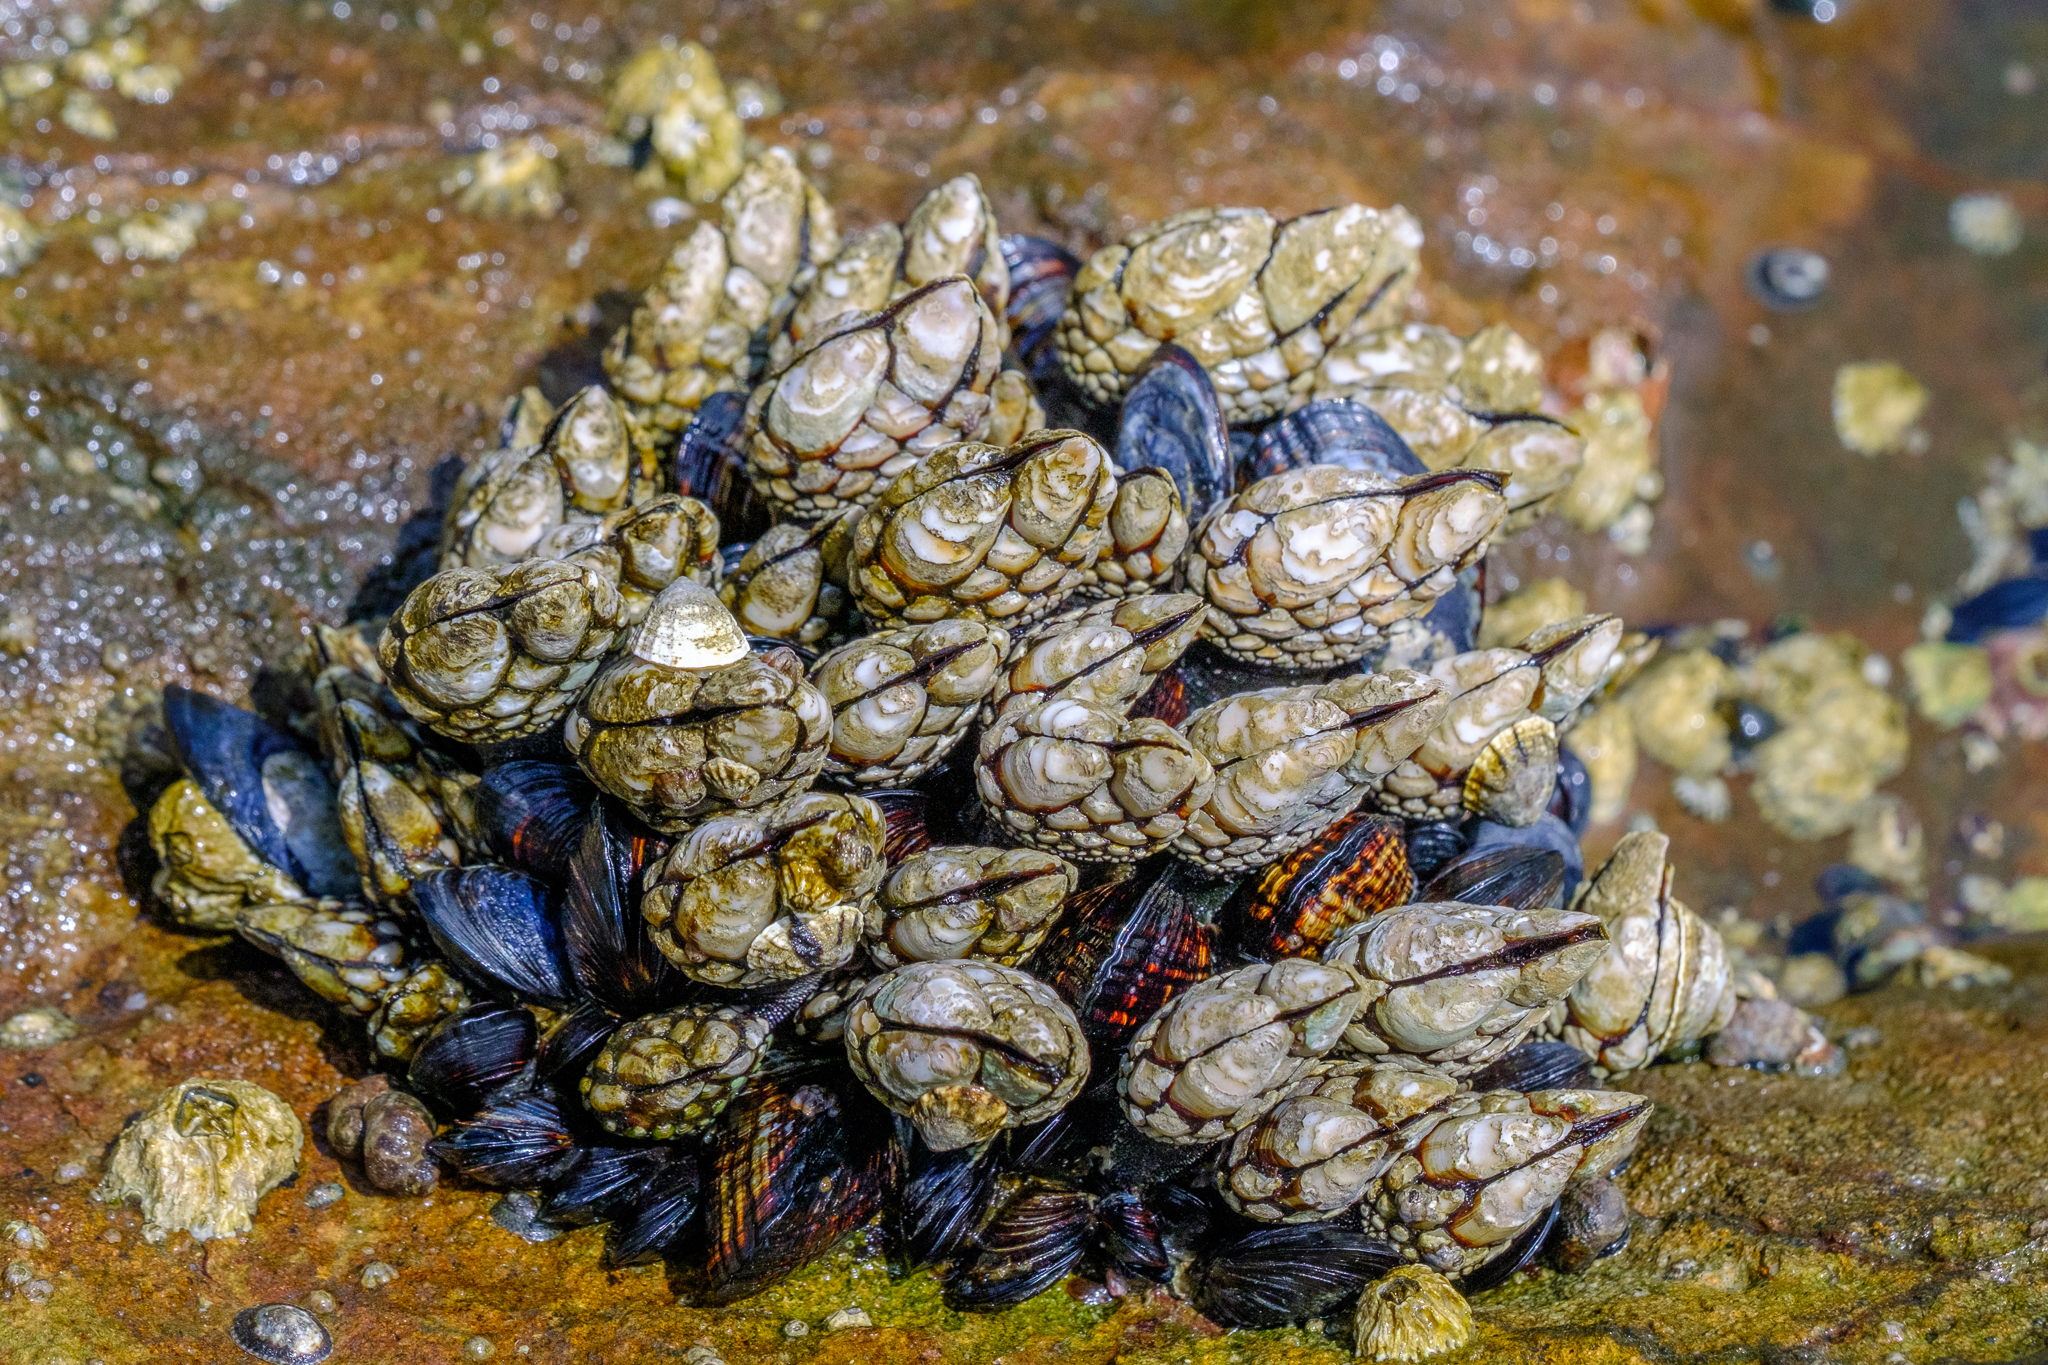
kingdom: Animalia
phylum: Arthropoda
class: Maxillopoda
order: Pedunculata
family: Pollicipedidae
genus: Pollicipes
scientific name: Pollicipes polymerus
